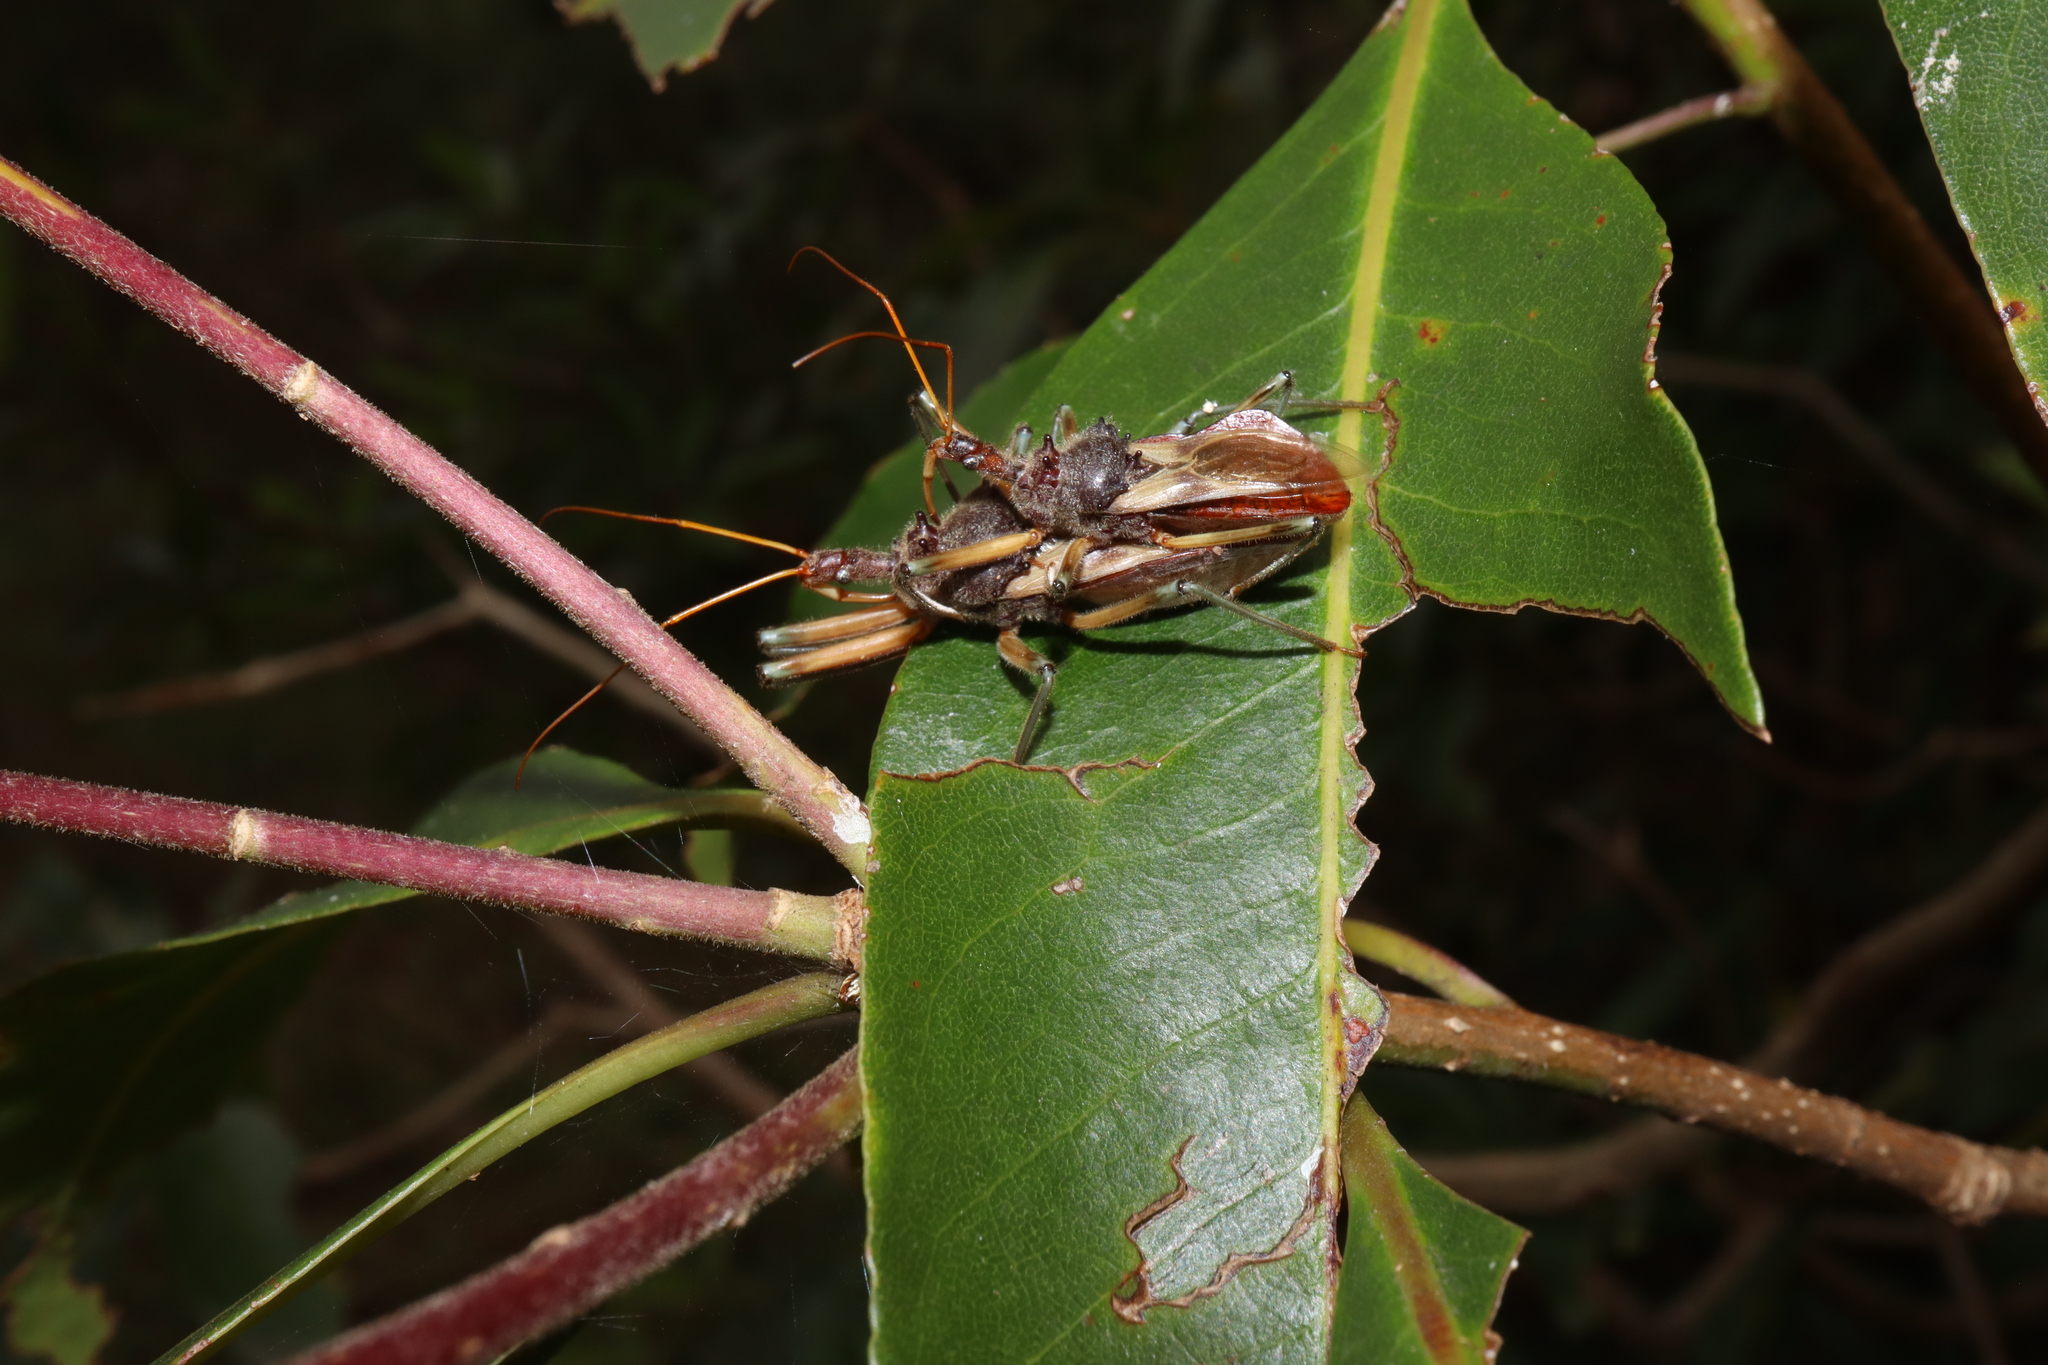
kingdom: Animalia
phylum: Arthropoda
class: Insecta
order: Hemiptera
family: Reduviidae
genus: Pristhesancus
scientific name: Pristhesancus plagipennis
